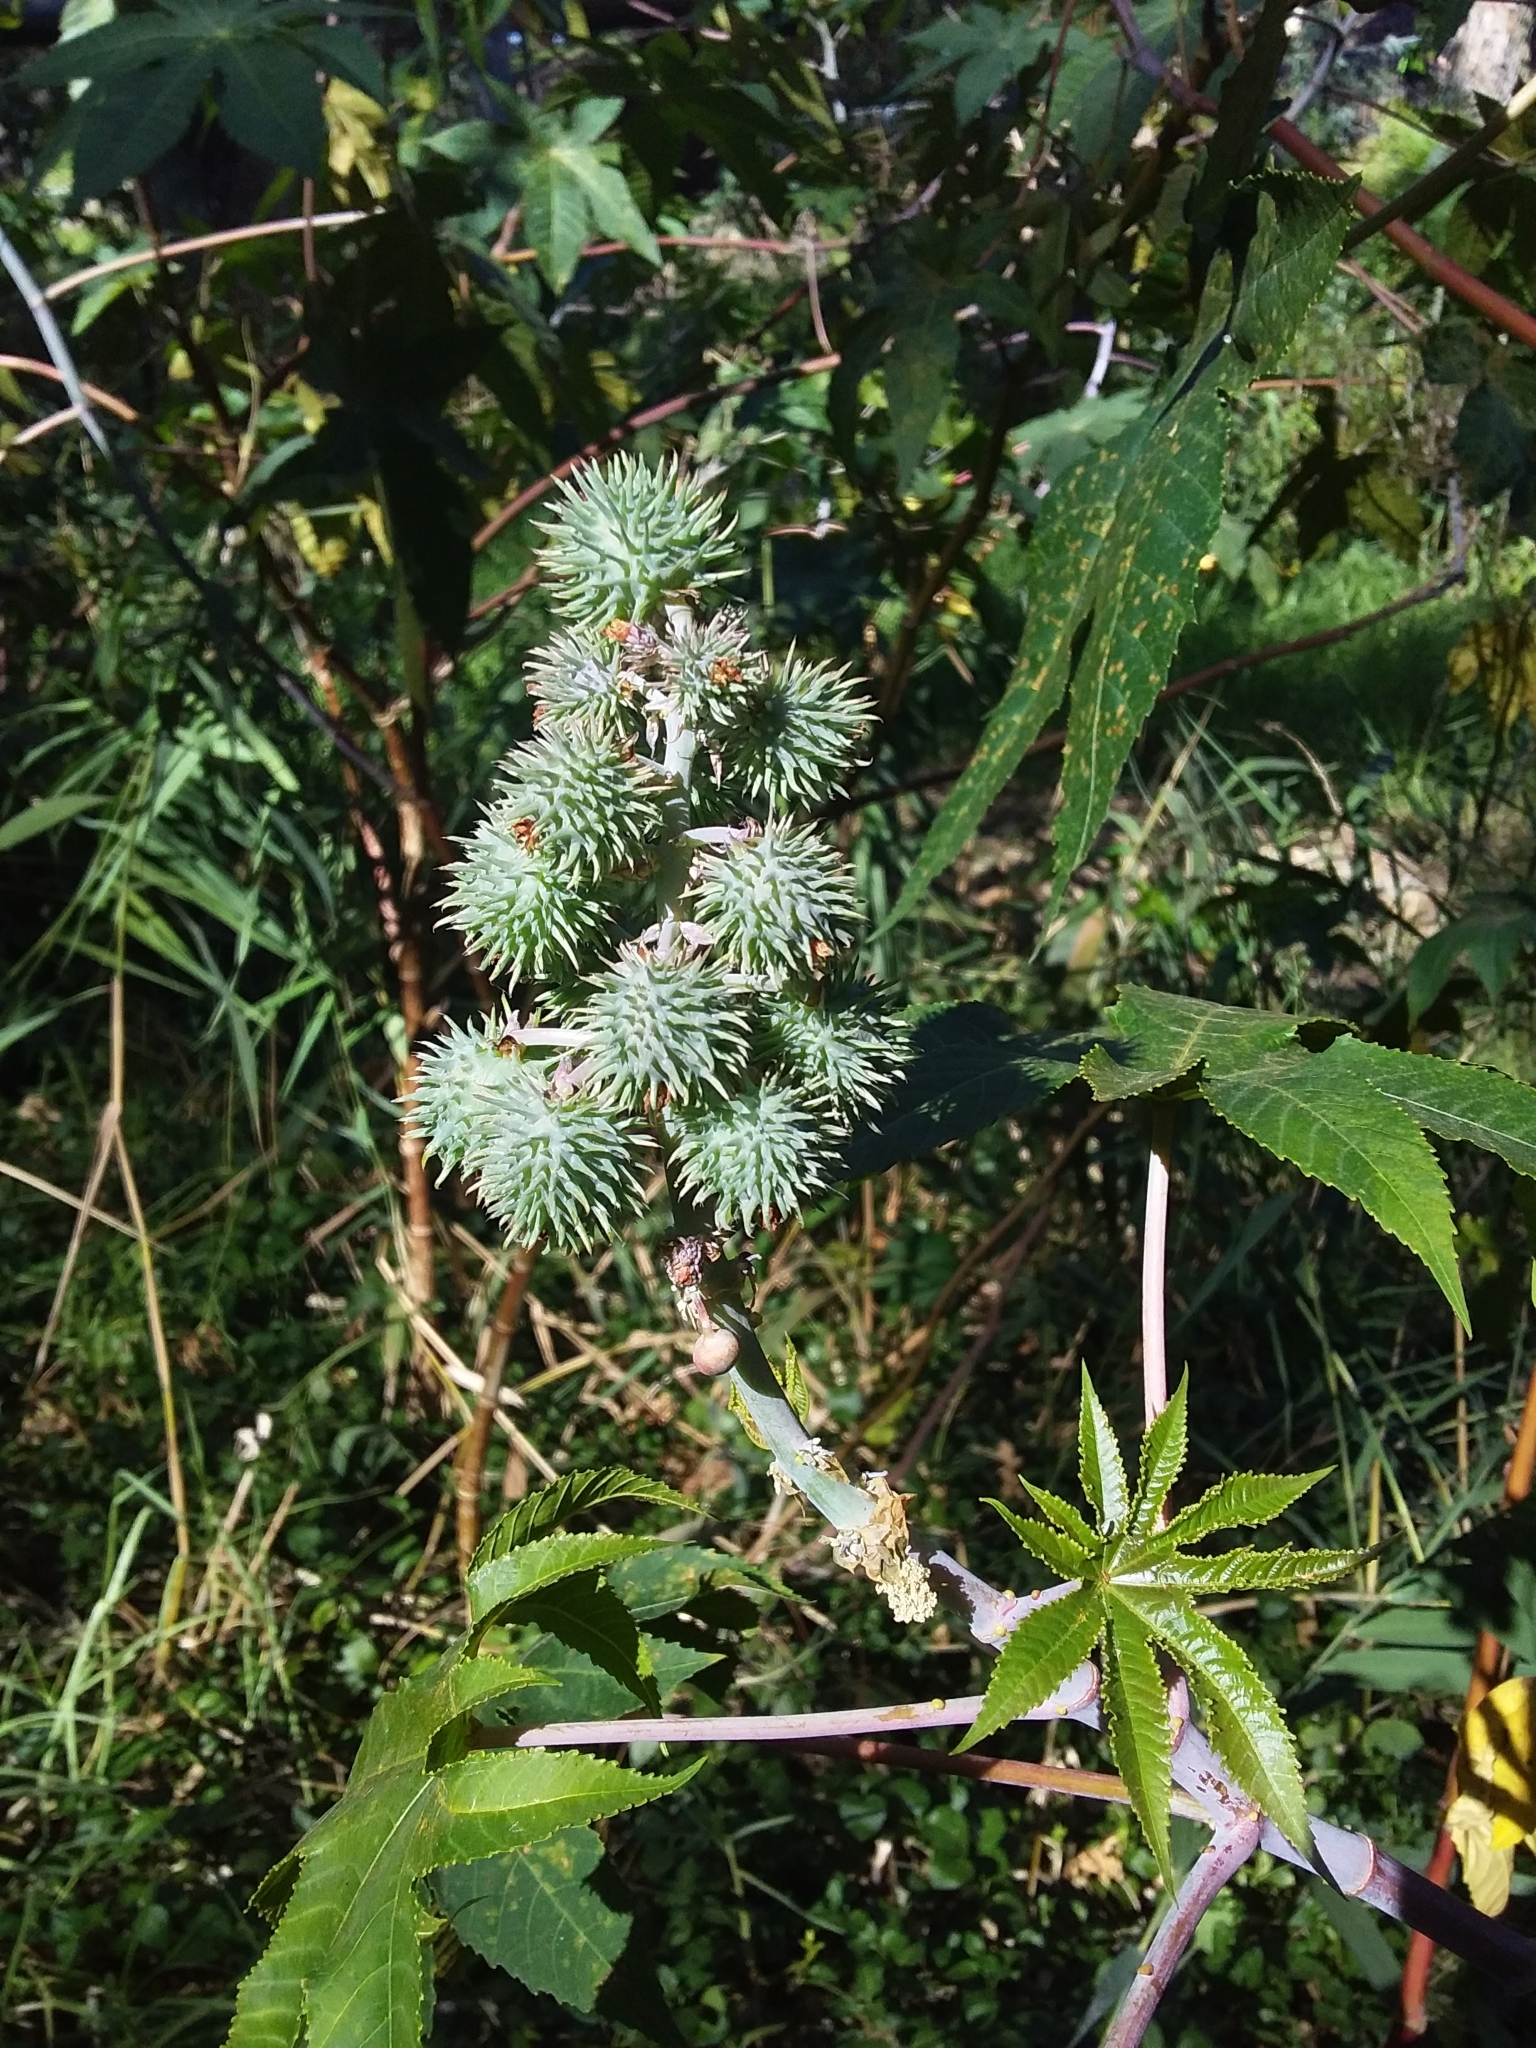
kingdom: Plantae
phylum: Tracheophyta
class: Magnoliopsida
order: Malpighiales
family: Euphorbiaceae
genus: Ricinus
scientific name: Ricinus communis
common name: Castor-oil-plant
